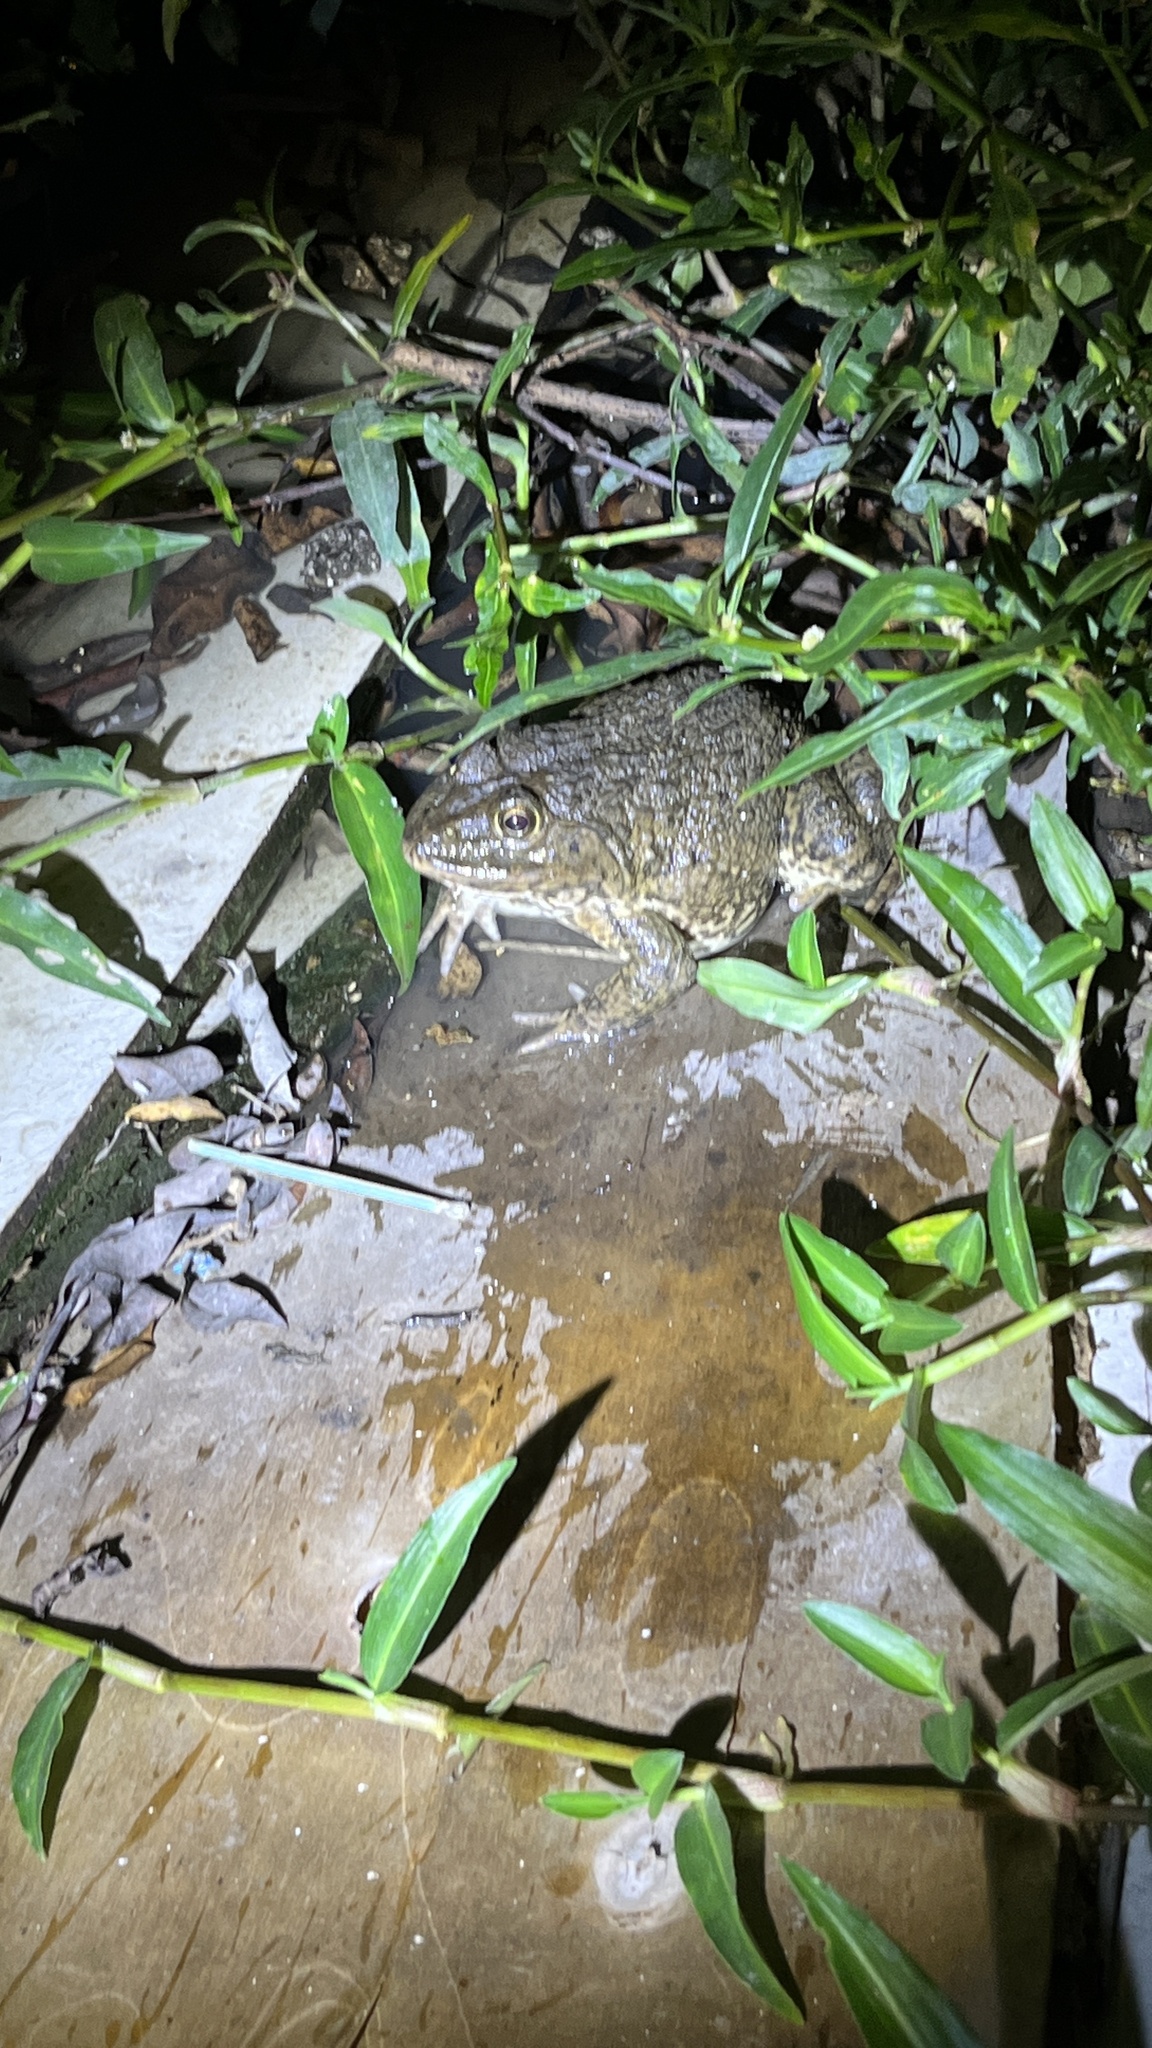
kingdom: Animalia
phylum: Chordata
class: Amphibia
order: Anura
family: Dicroglossidae
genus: Hoplobatrachus
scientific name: Hoplobatrachus rugulosus
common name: Chinese edible frog
